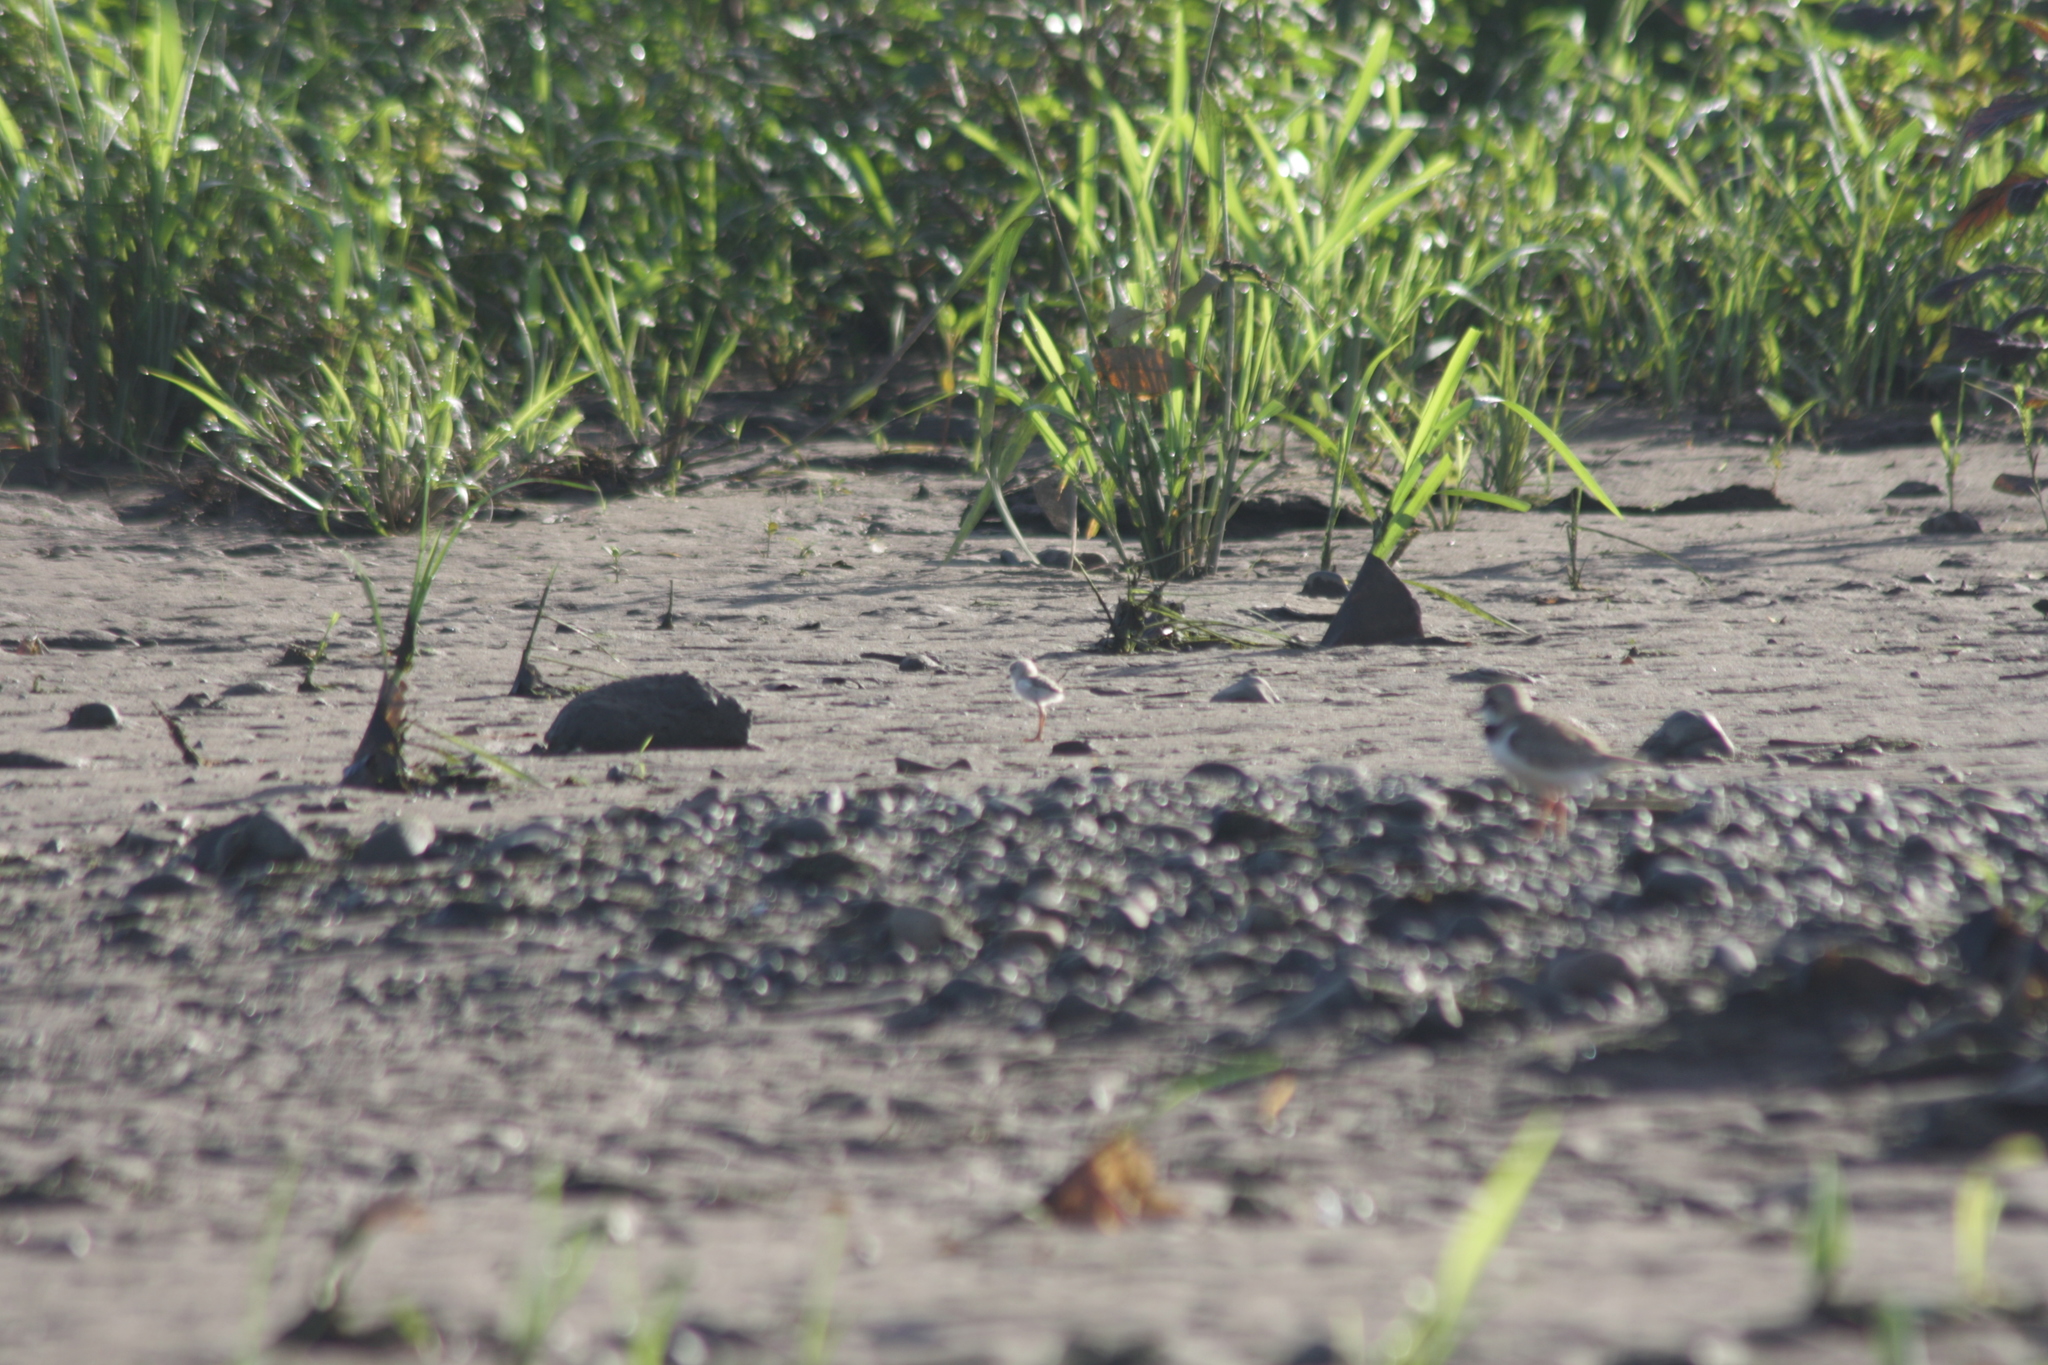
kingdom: Animalia
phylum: Chordata
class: Aves
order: Charadriiformes
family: Charadriidae
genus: Anarhynchus
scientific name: Anarhynchus
